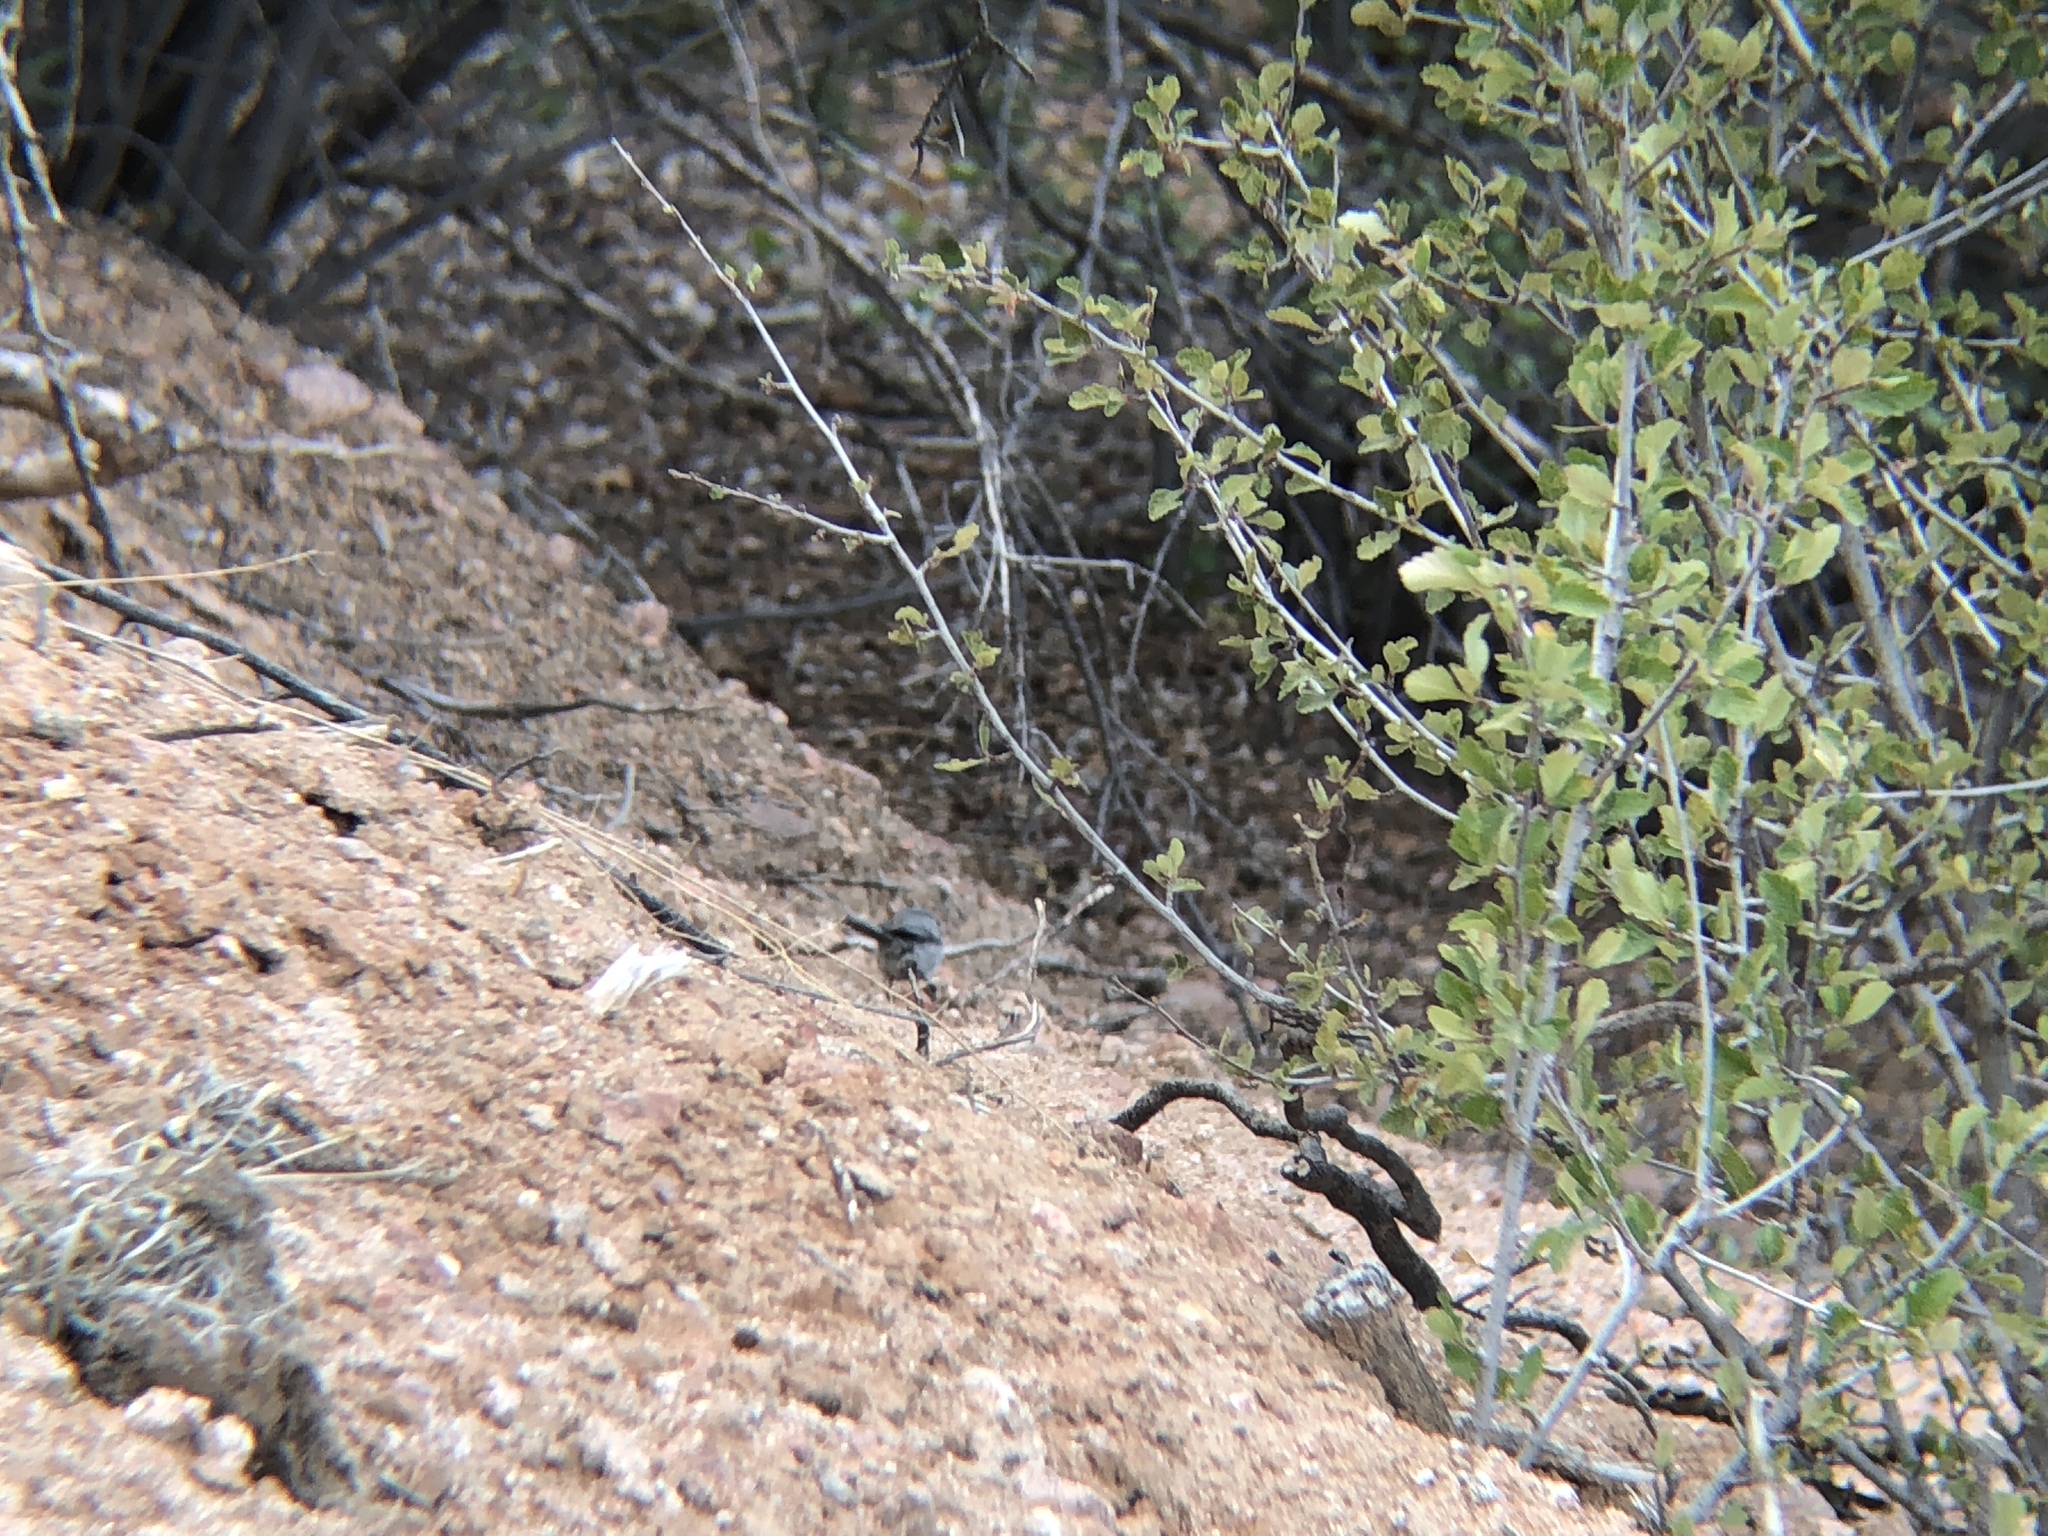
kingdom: Animalia
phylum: Chordata
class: Aves
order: Passeriformes
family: Aegithalidae
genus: Psaltriparus
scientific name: Psaltriparus minimus
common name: American bushtit
